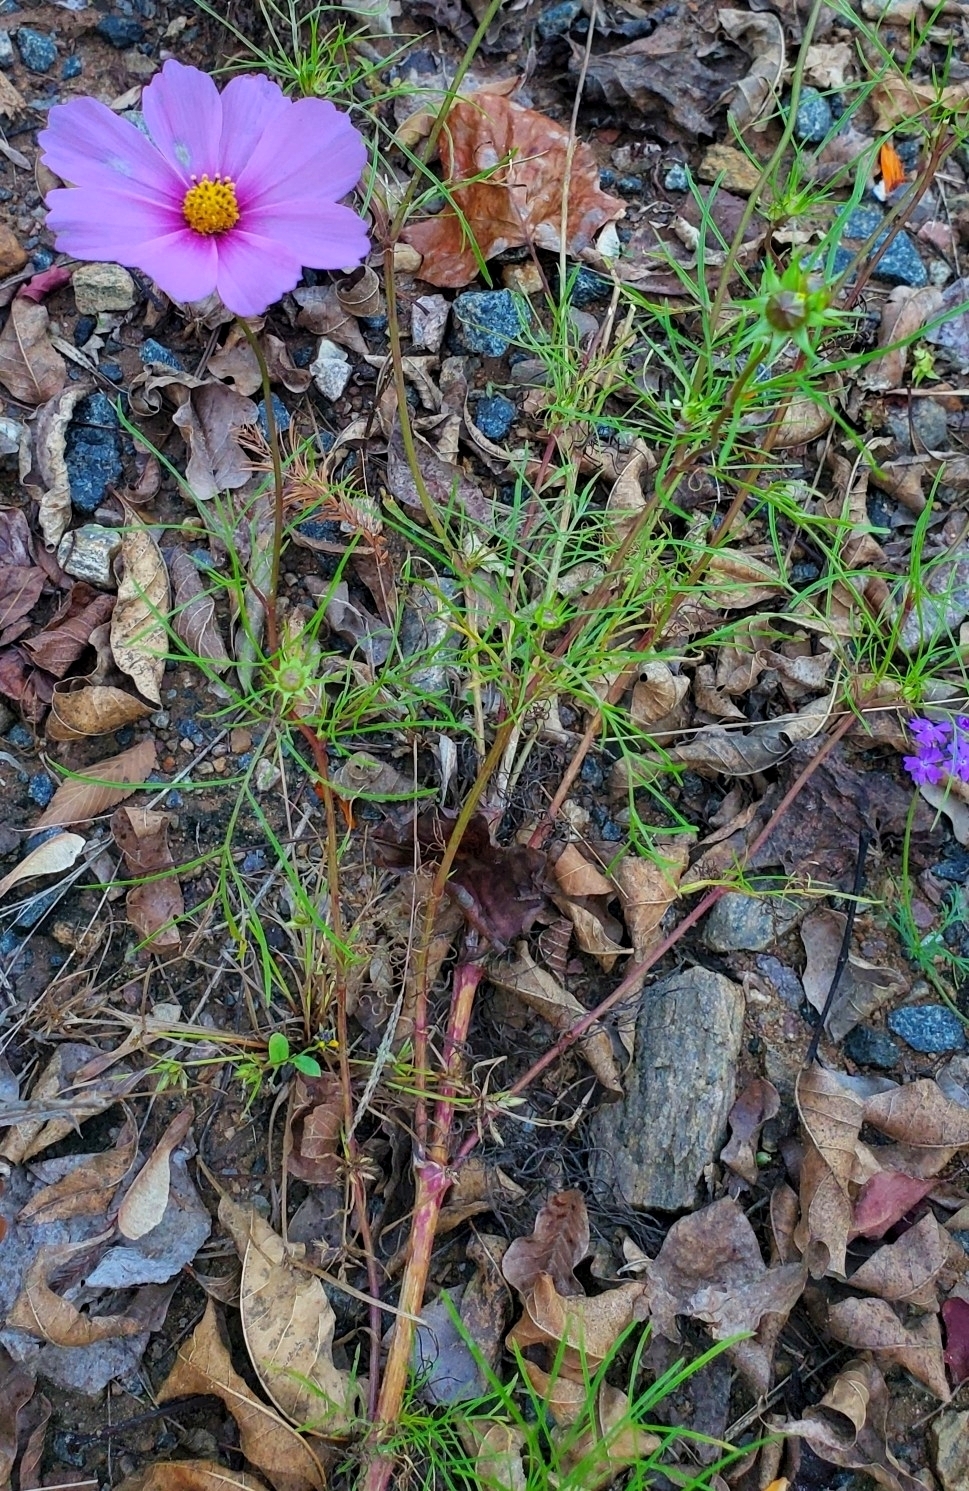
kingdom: Plantae
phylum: Tracheophyta
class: Magnoliopsida
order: Asterales
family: Asteraceae
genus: Cosmos
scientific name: Cosmos bipinnatus
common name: Garden cosmos
